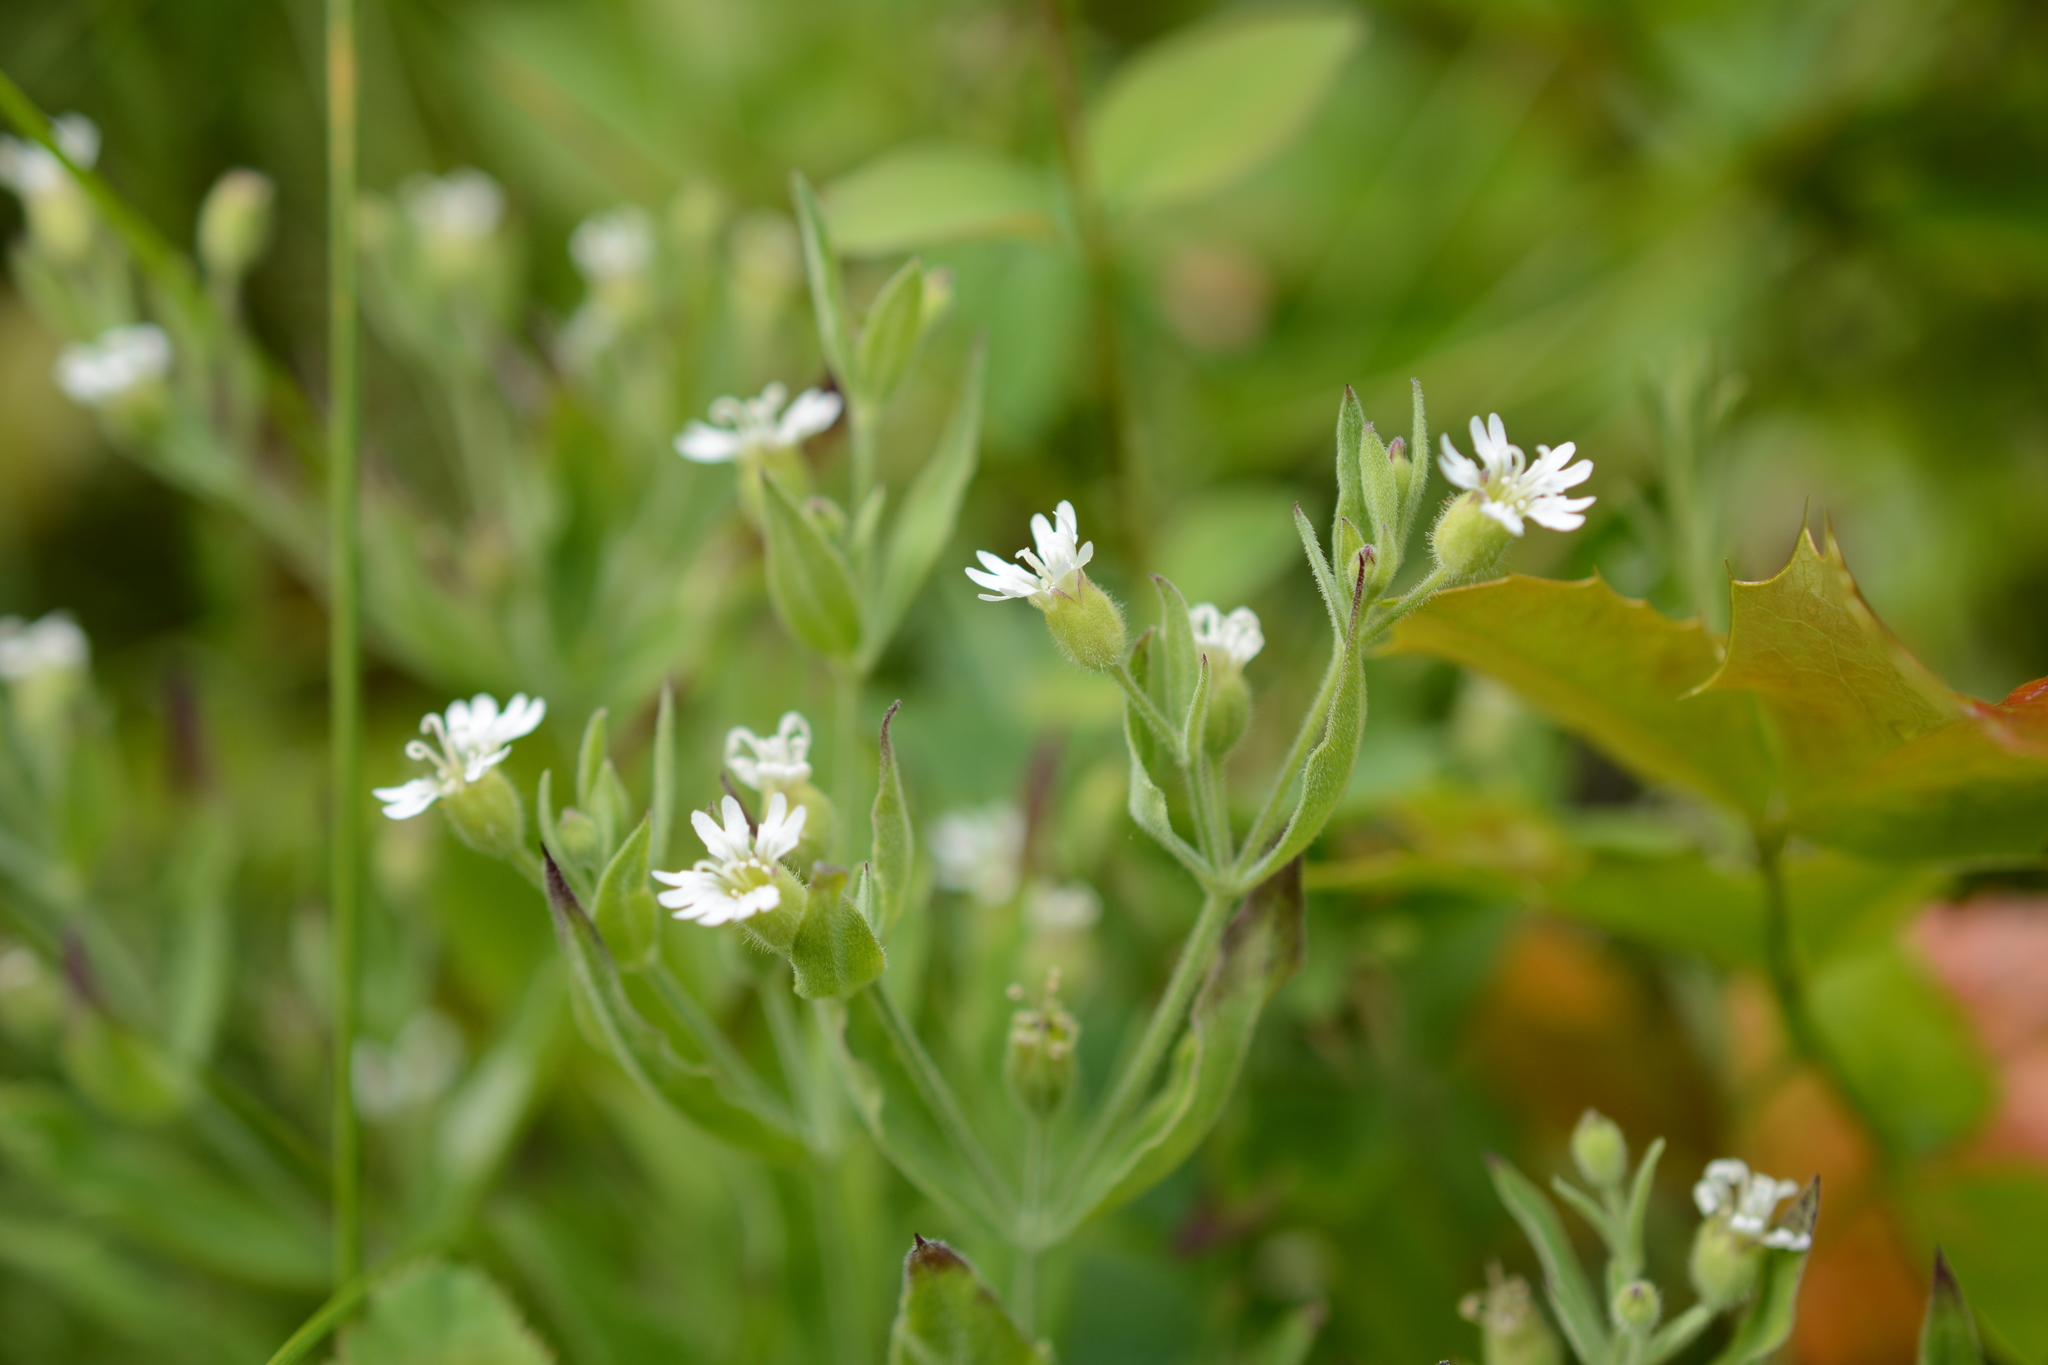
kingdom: Plantae
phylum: Tracheophyta
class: Magnoliopsida
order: Caryophyllales
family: Caryophyllaceae
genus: Silene
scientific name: Silene menziesii
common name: Menzies's catchfly
